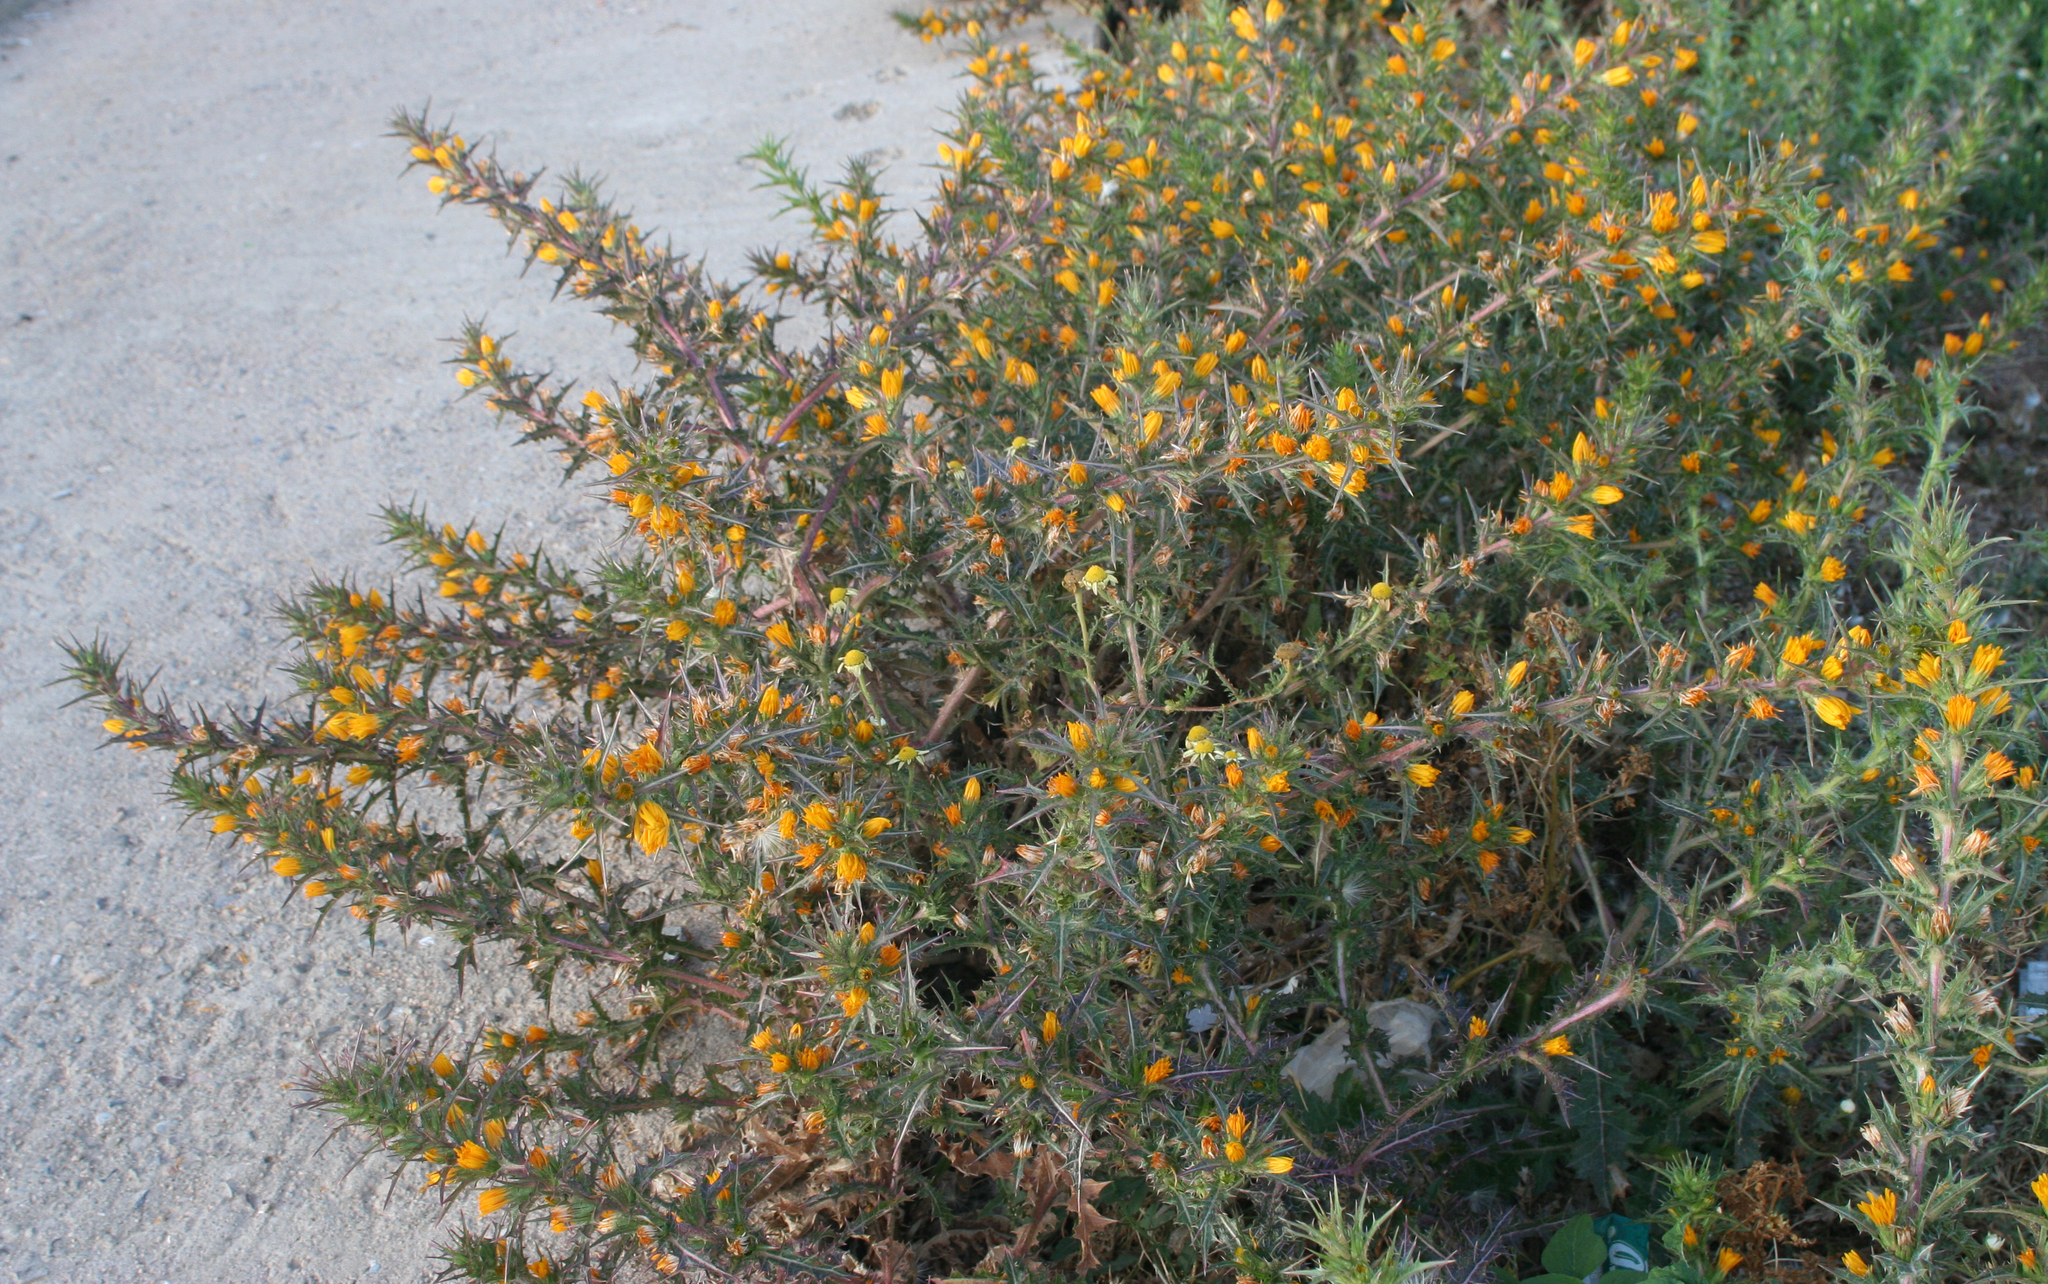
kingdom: Plantae
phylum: Tracheophyta
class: Magnoliopsida
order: Asterales
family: Asteraceae
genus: Scolymus
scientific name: Scolymus hispanicus
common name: Golden thistle
